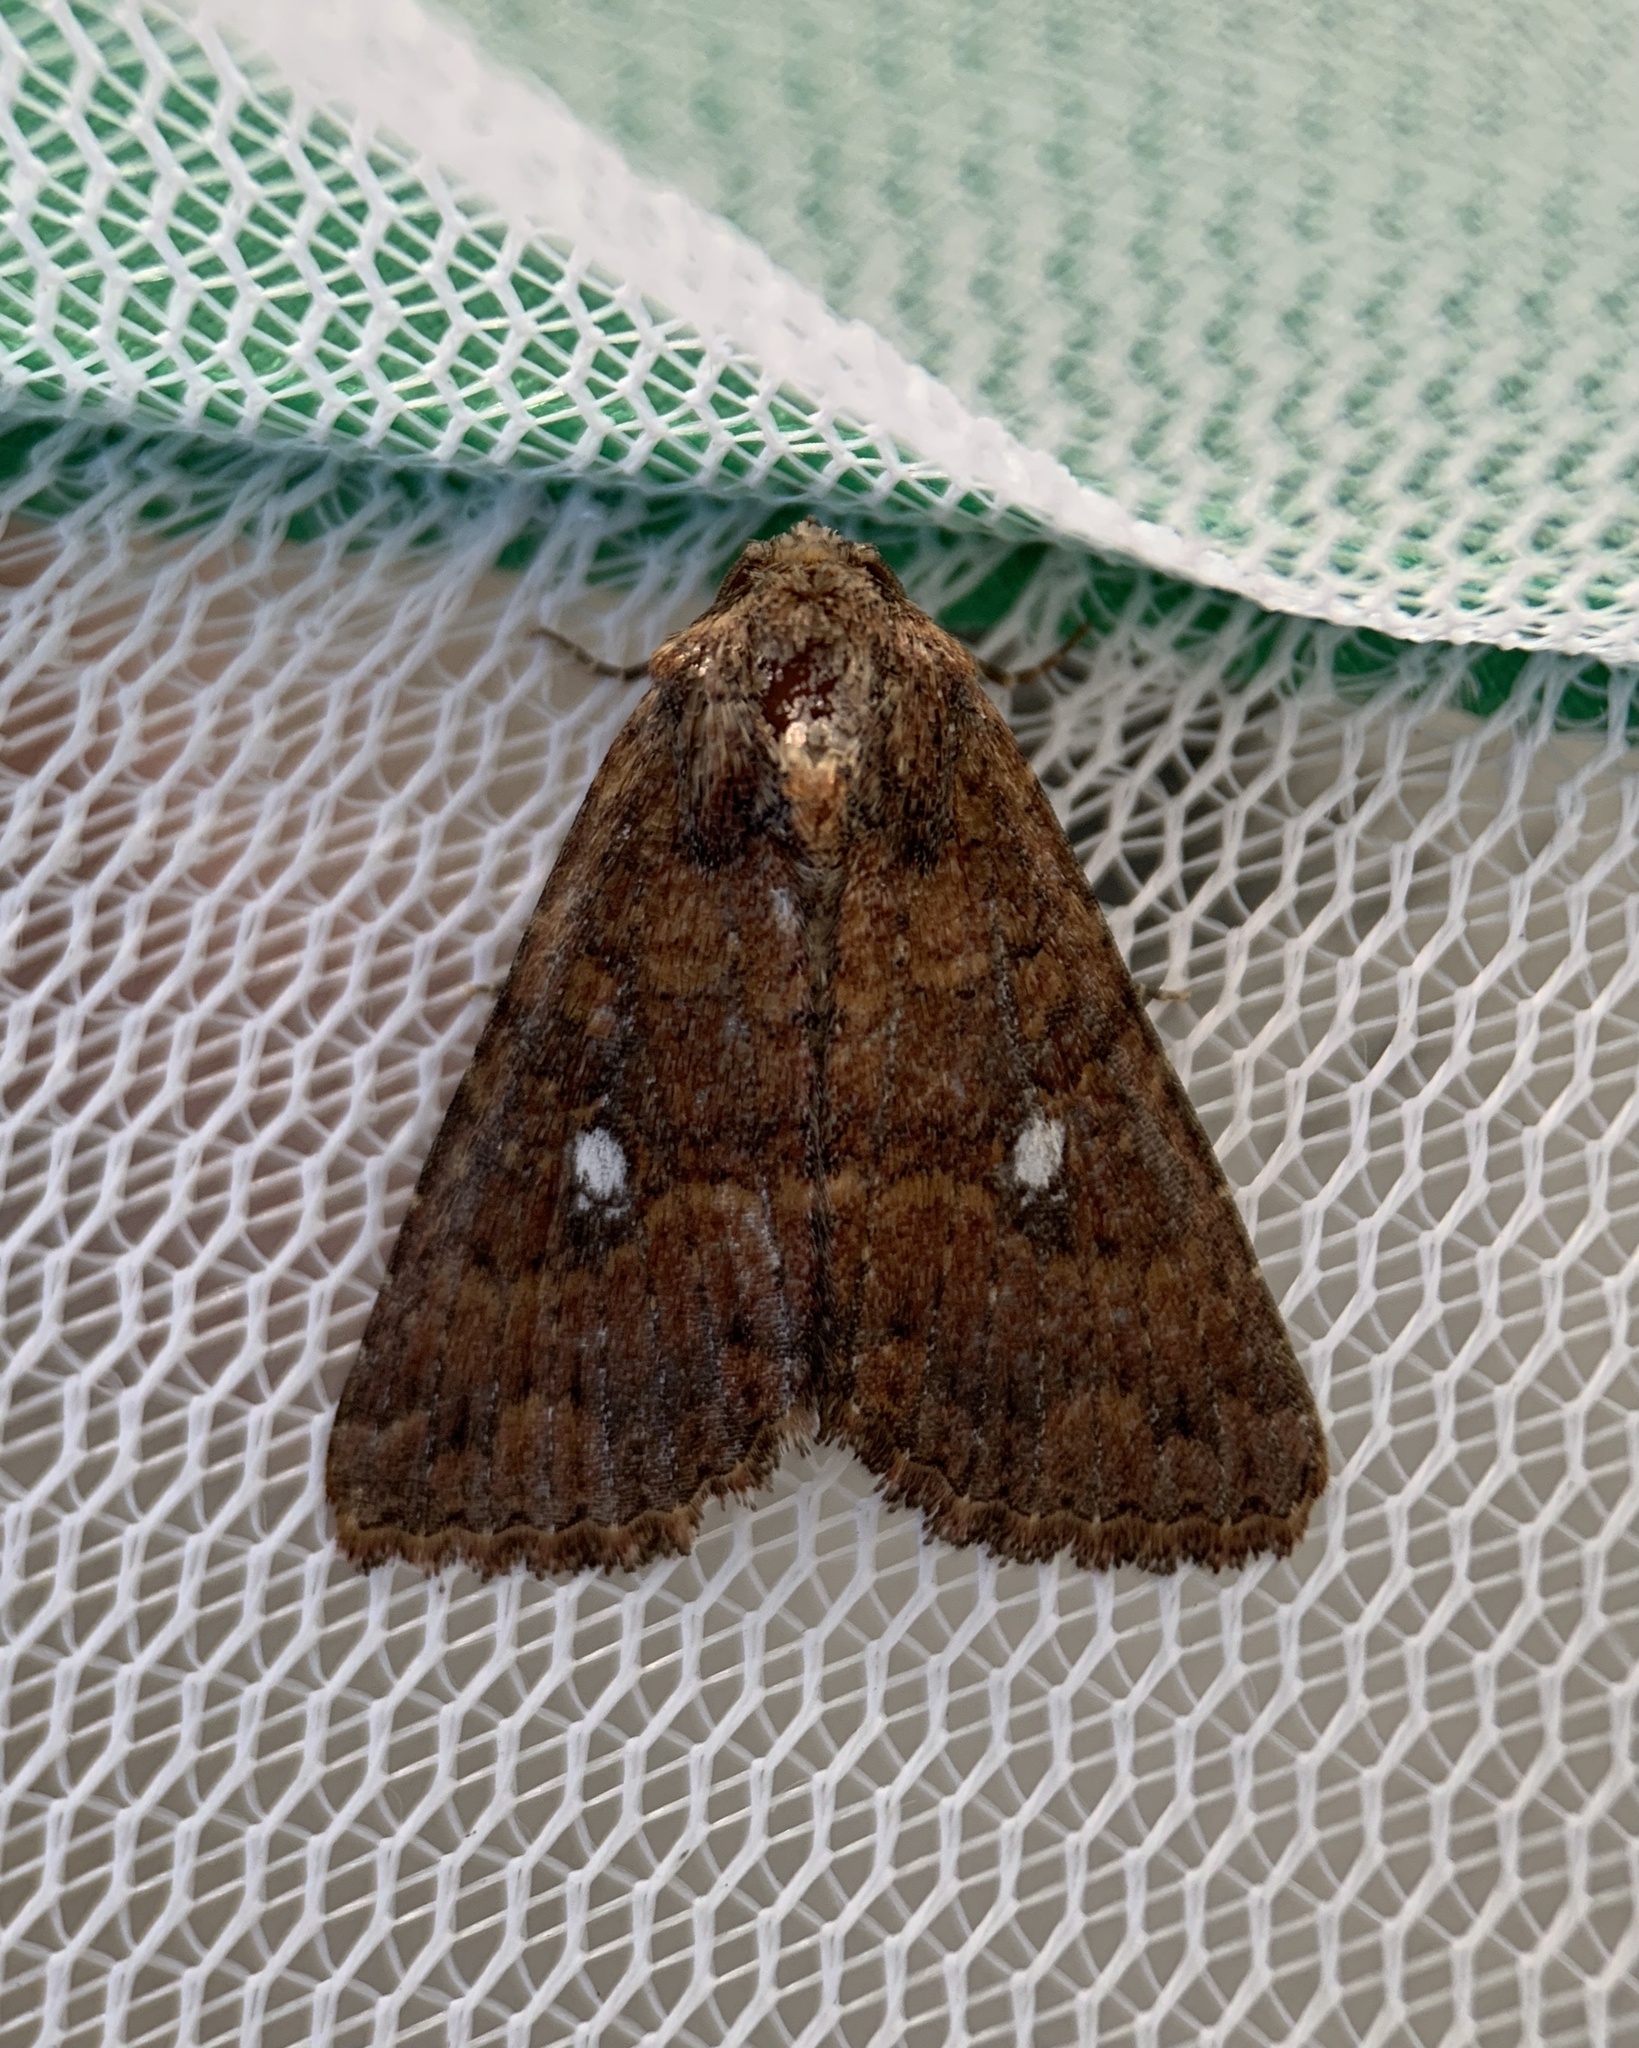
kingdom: Animalia
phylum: Arthropoda
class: Insecta
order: Lepidoptera
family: Noctuidae
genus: Condica
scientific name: Condica mobilis
